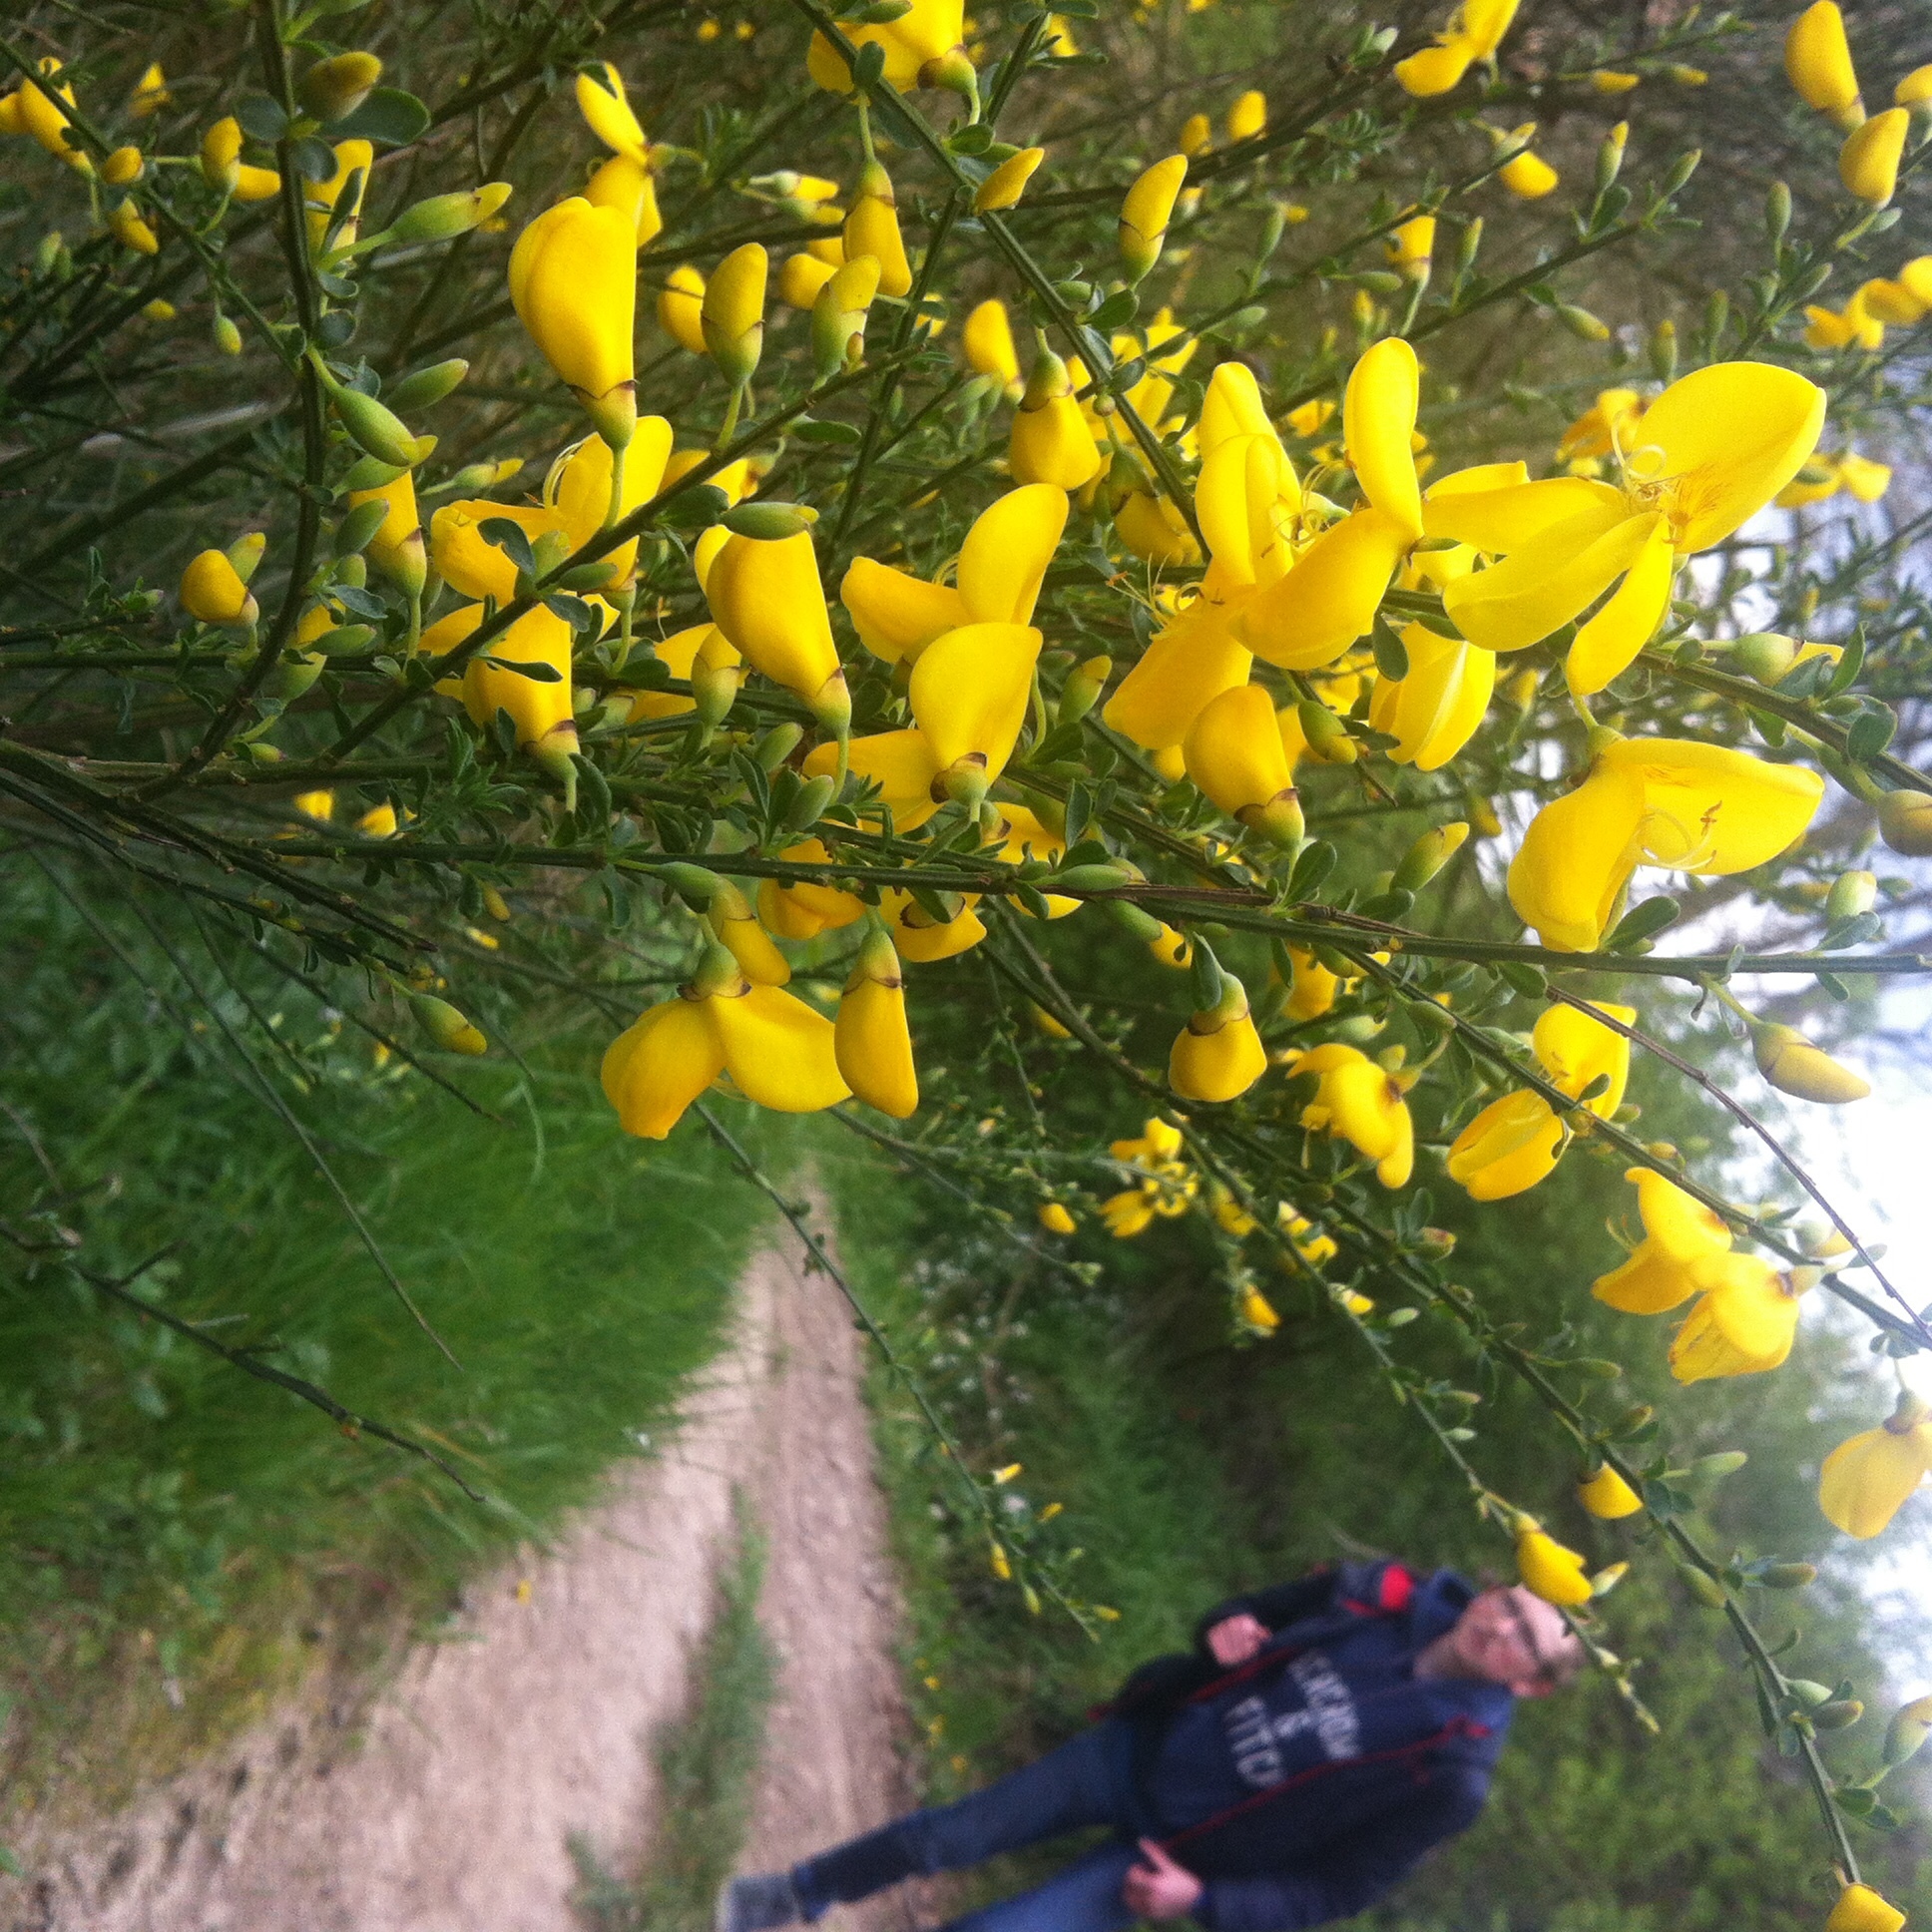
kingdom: Plantae
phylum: Tracheophyta
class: Magnoliopsida
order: Fabales
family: Fabaceae
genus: Cytisus
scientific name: Cytisus scoparius
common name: Scotch broom
